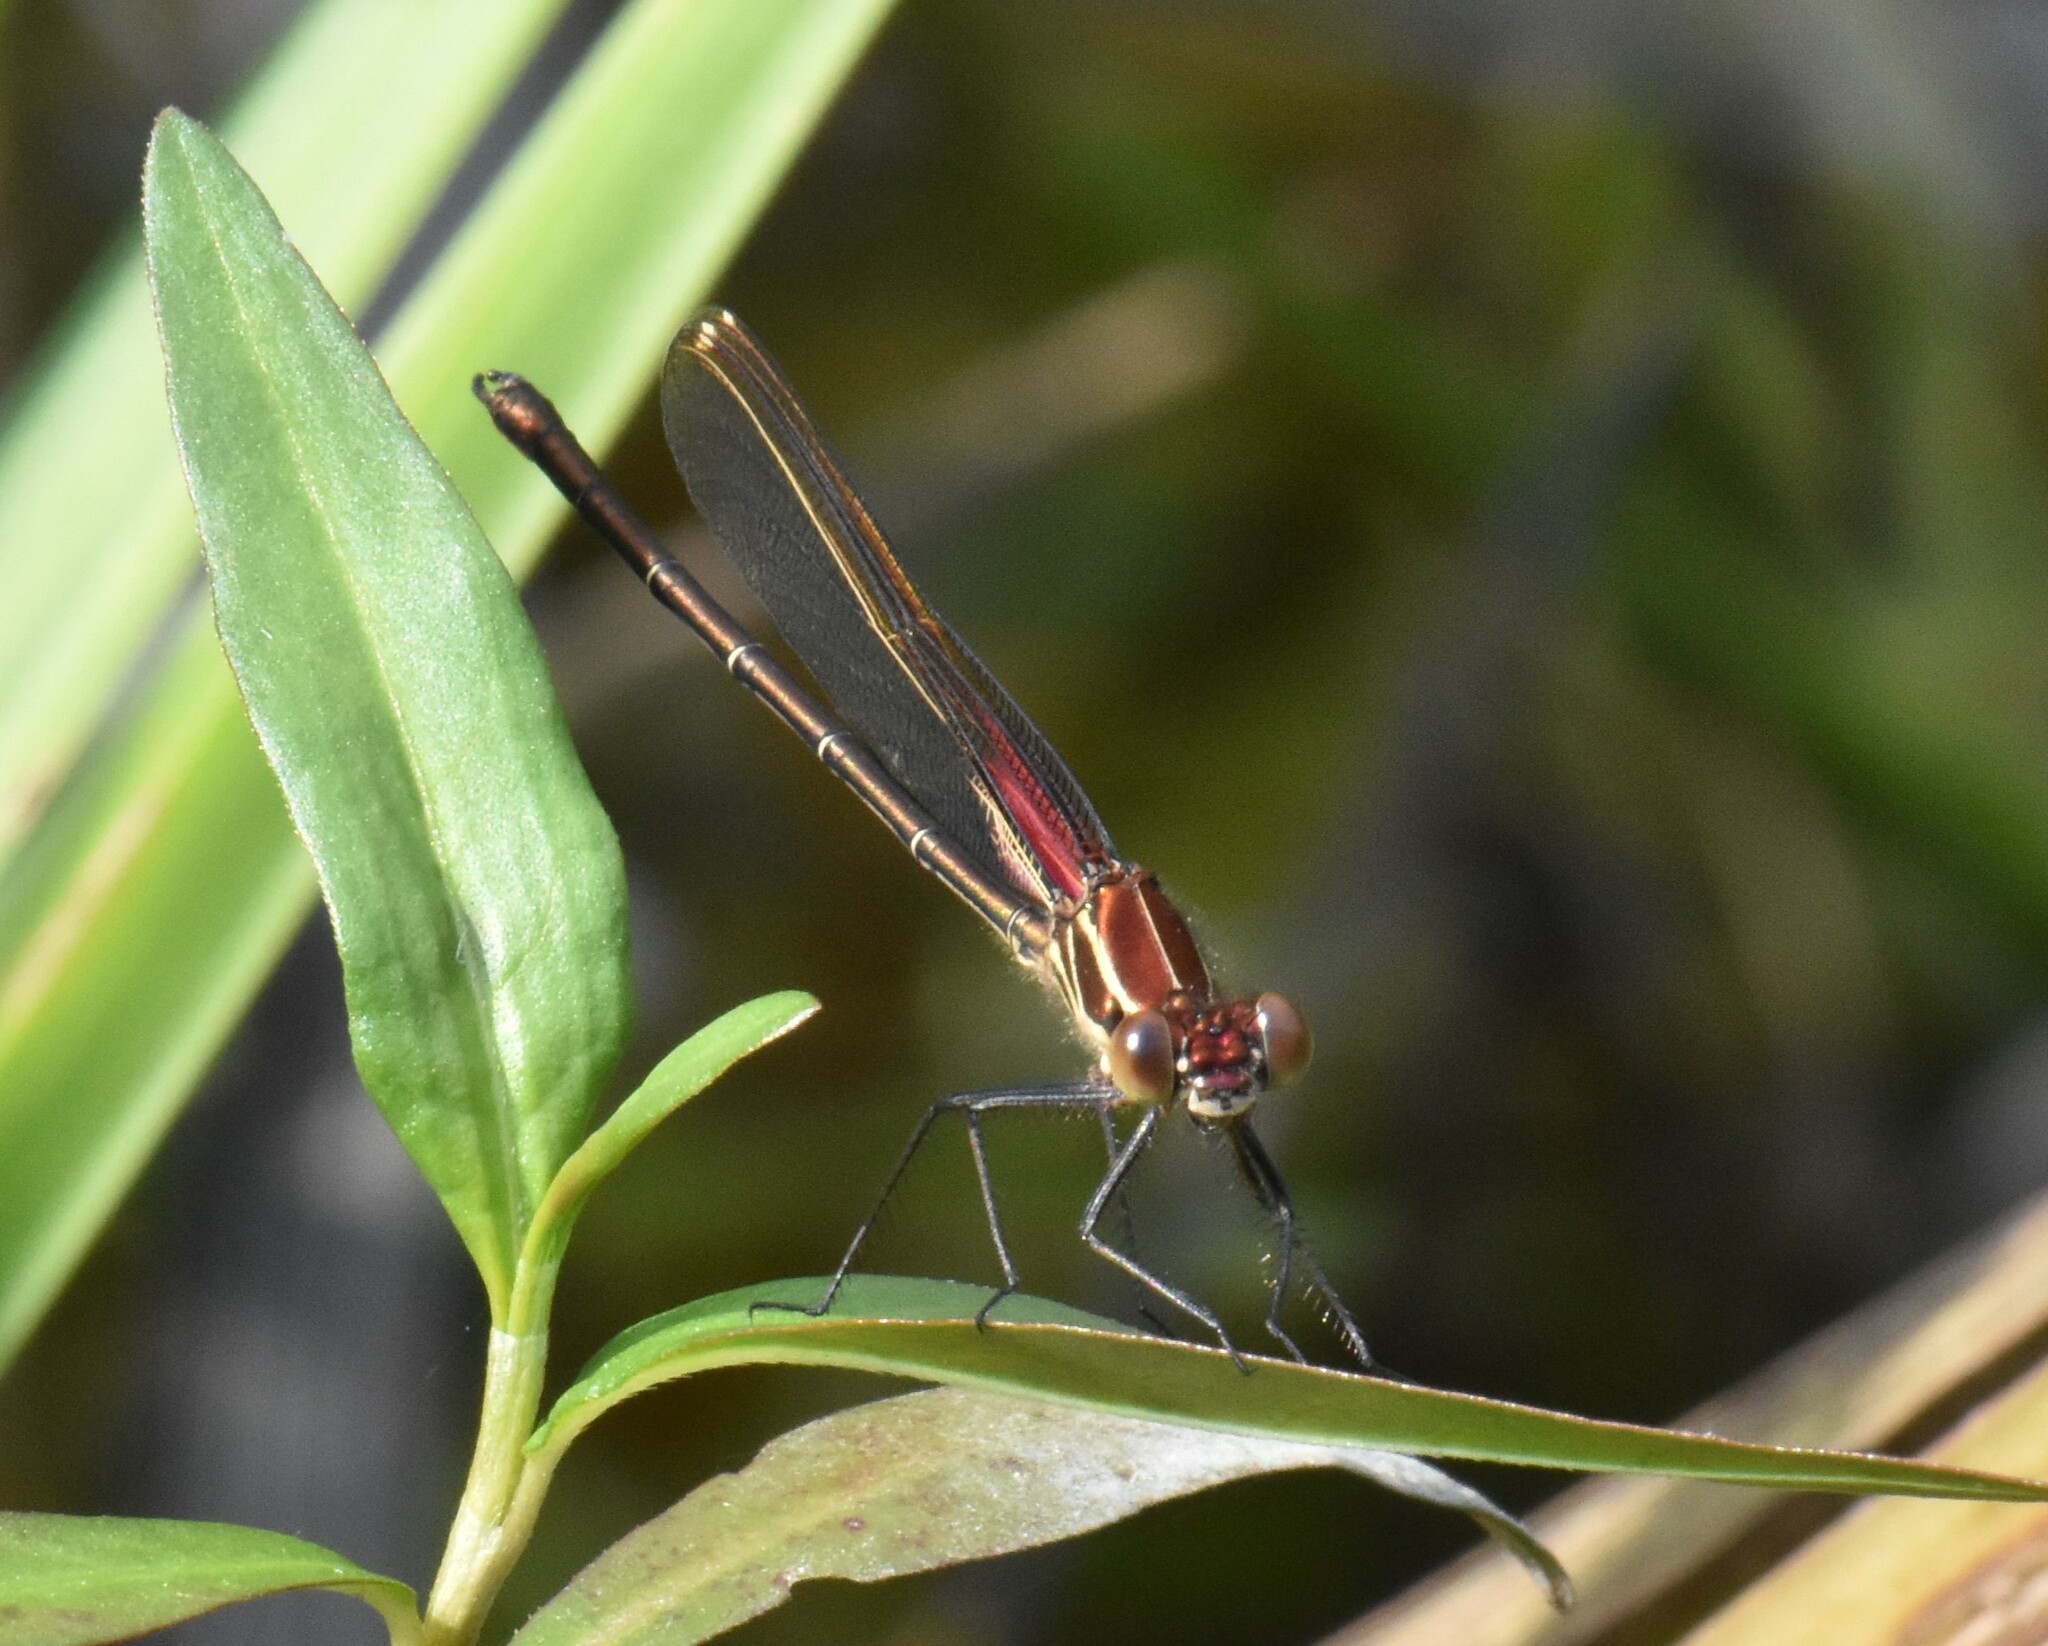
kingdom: Animalia
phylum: Arthropoda
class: Insecta
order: Odonata
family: Calopterygidae
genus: Hetaerina
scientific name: Hetaerina americana
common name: American rubyspot
